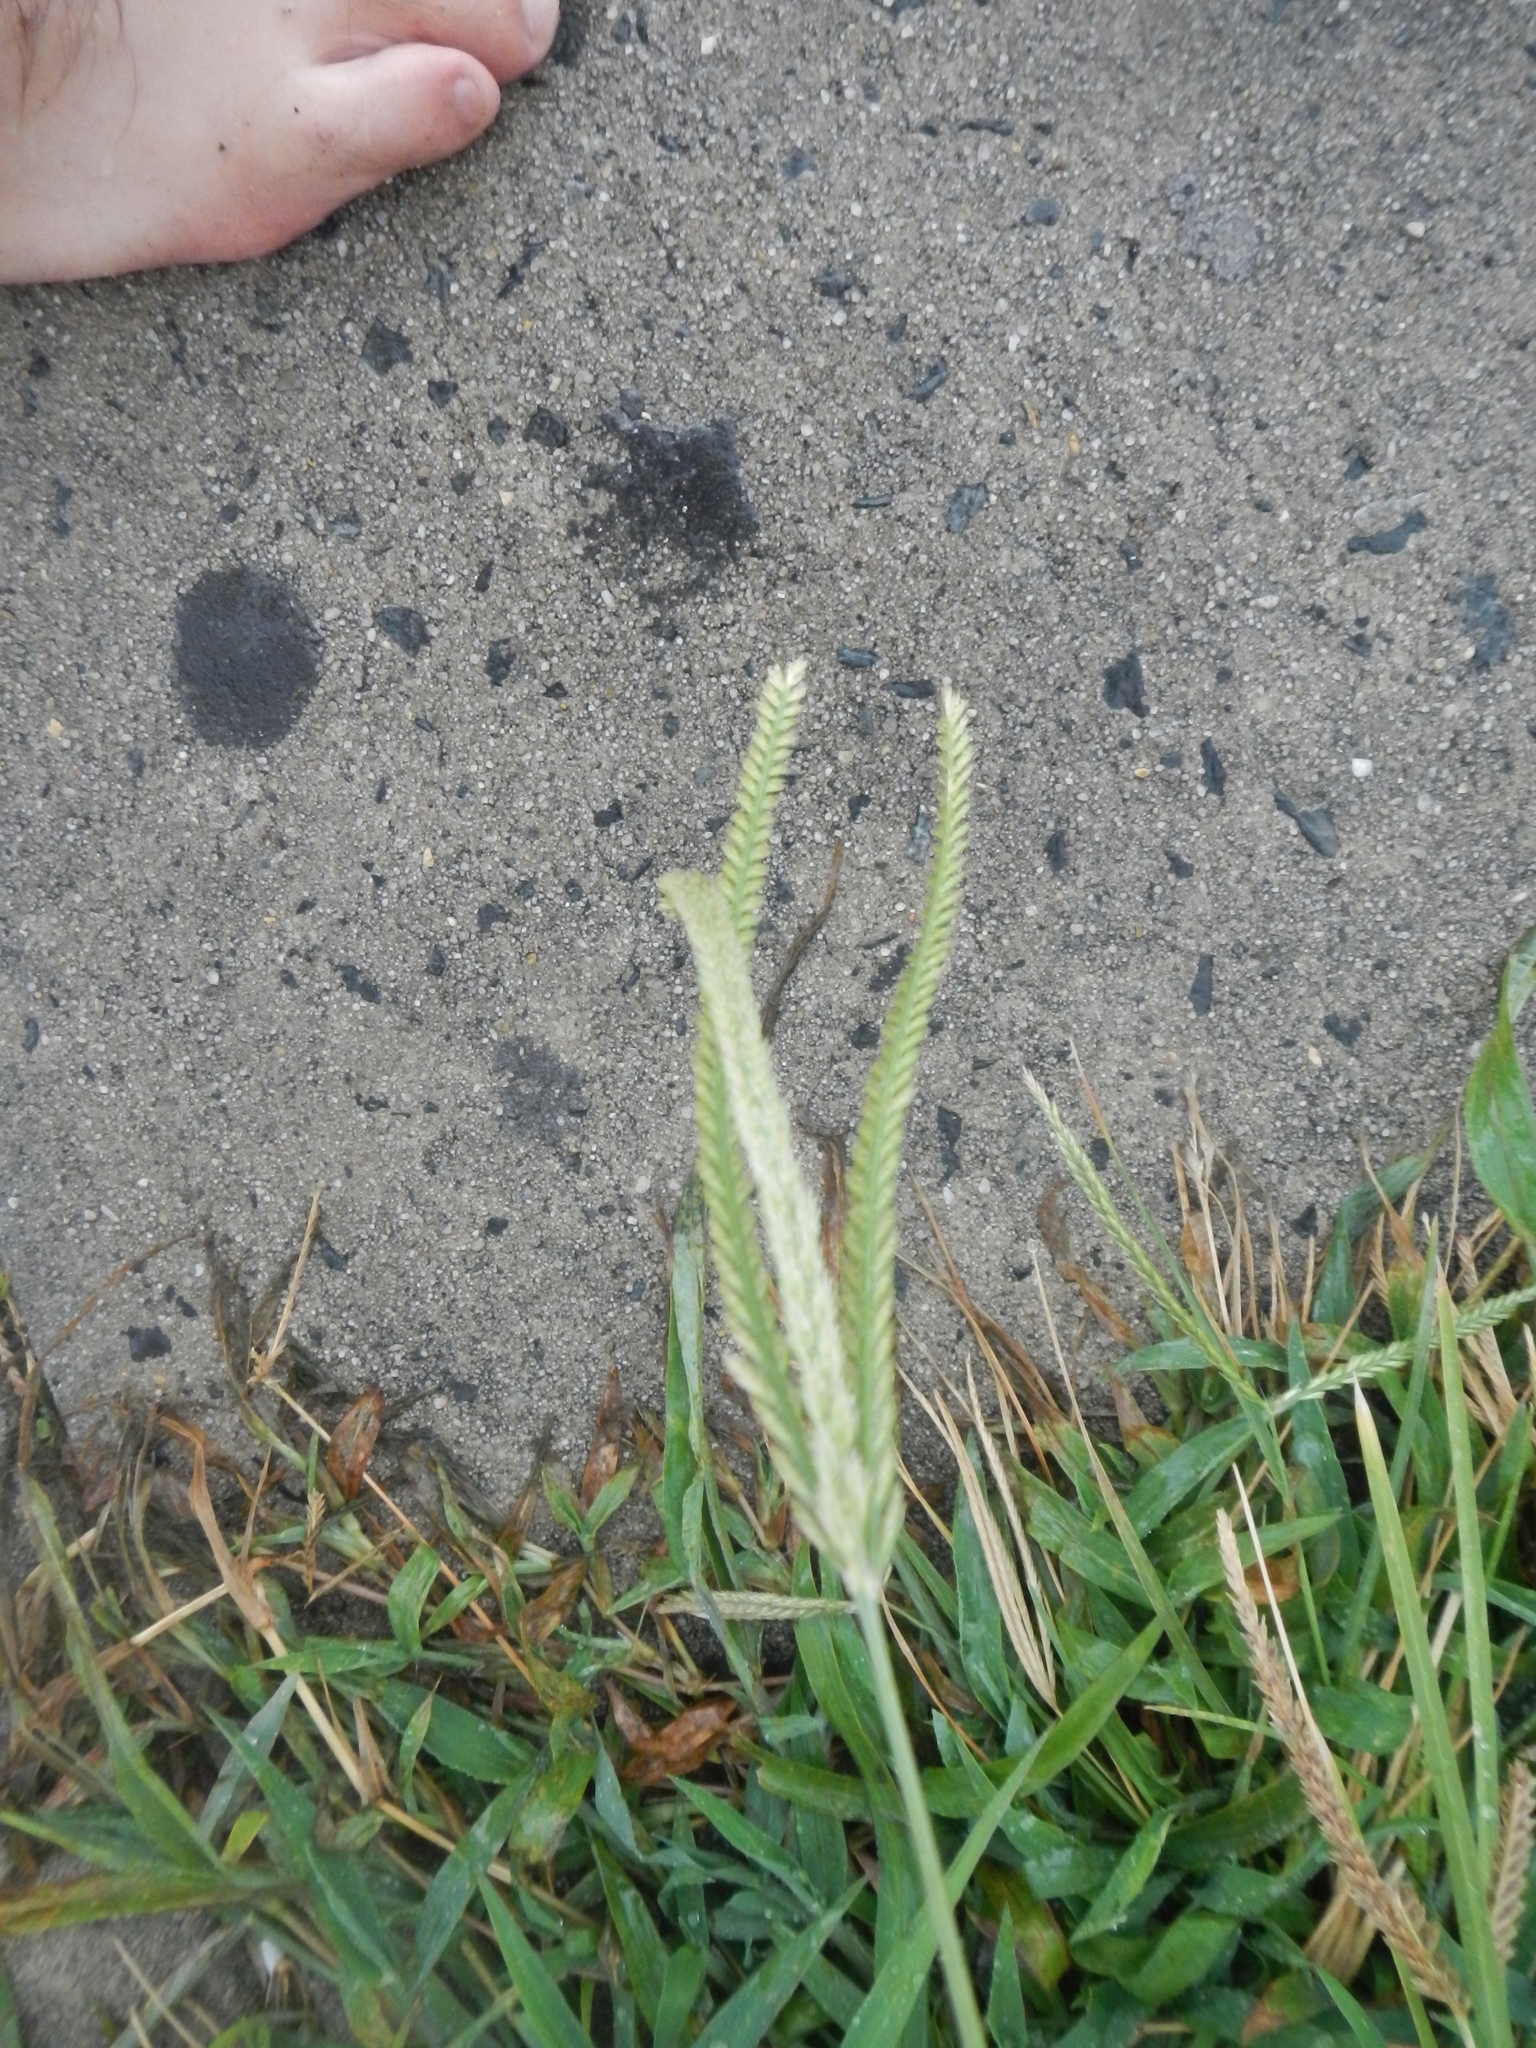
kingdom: Plantae
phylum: Tracheophyta
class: Liliopsida
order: Poales
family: Poaceae
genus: Eleusine
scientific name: Eleusine indica
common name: Yard-grass
